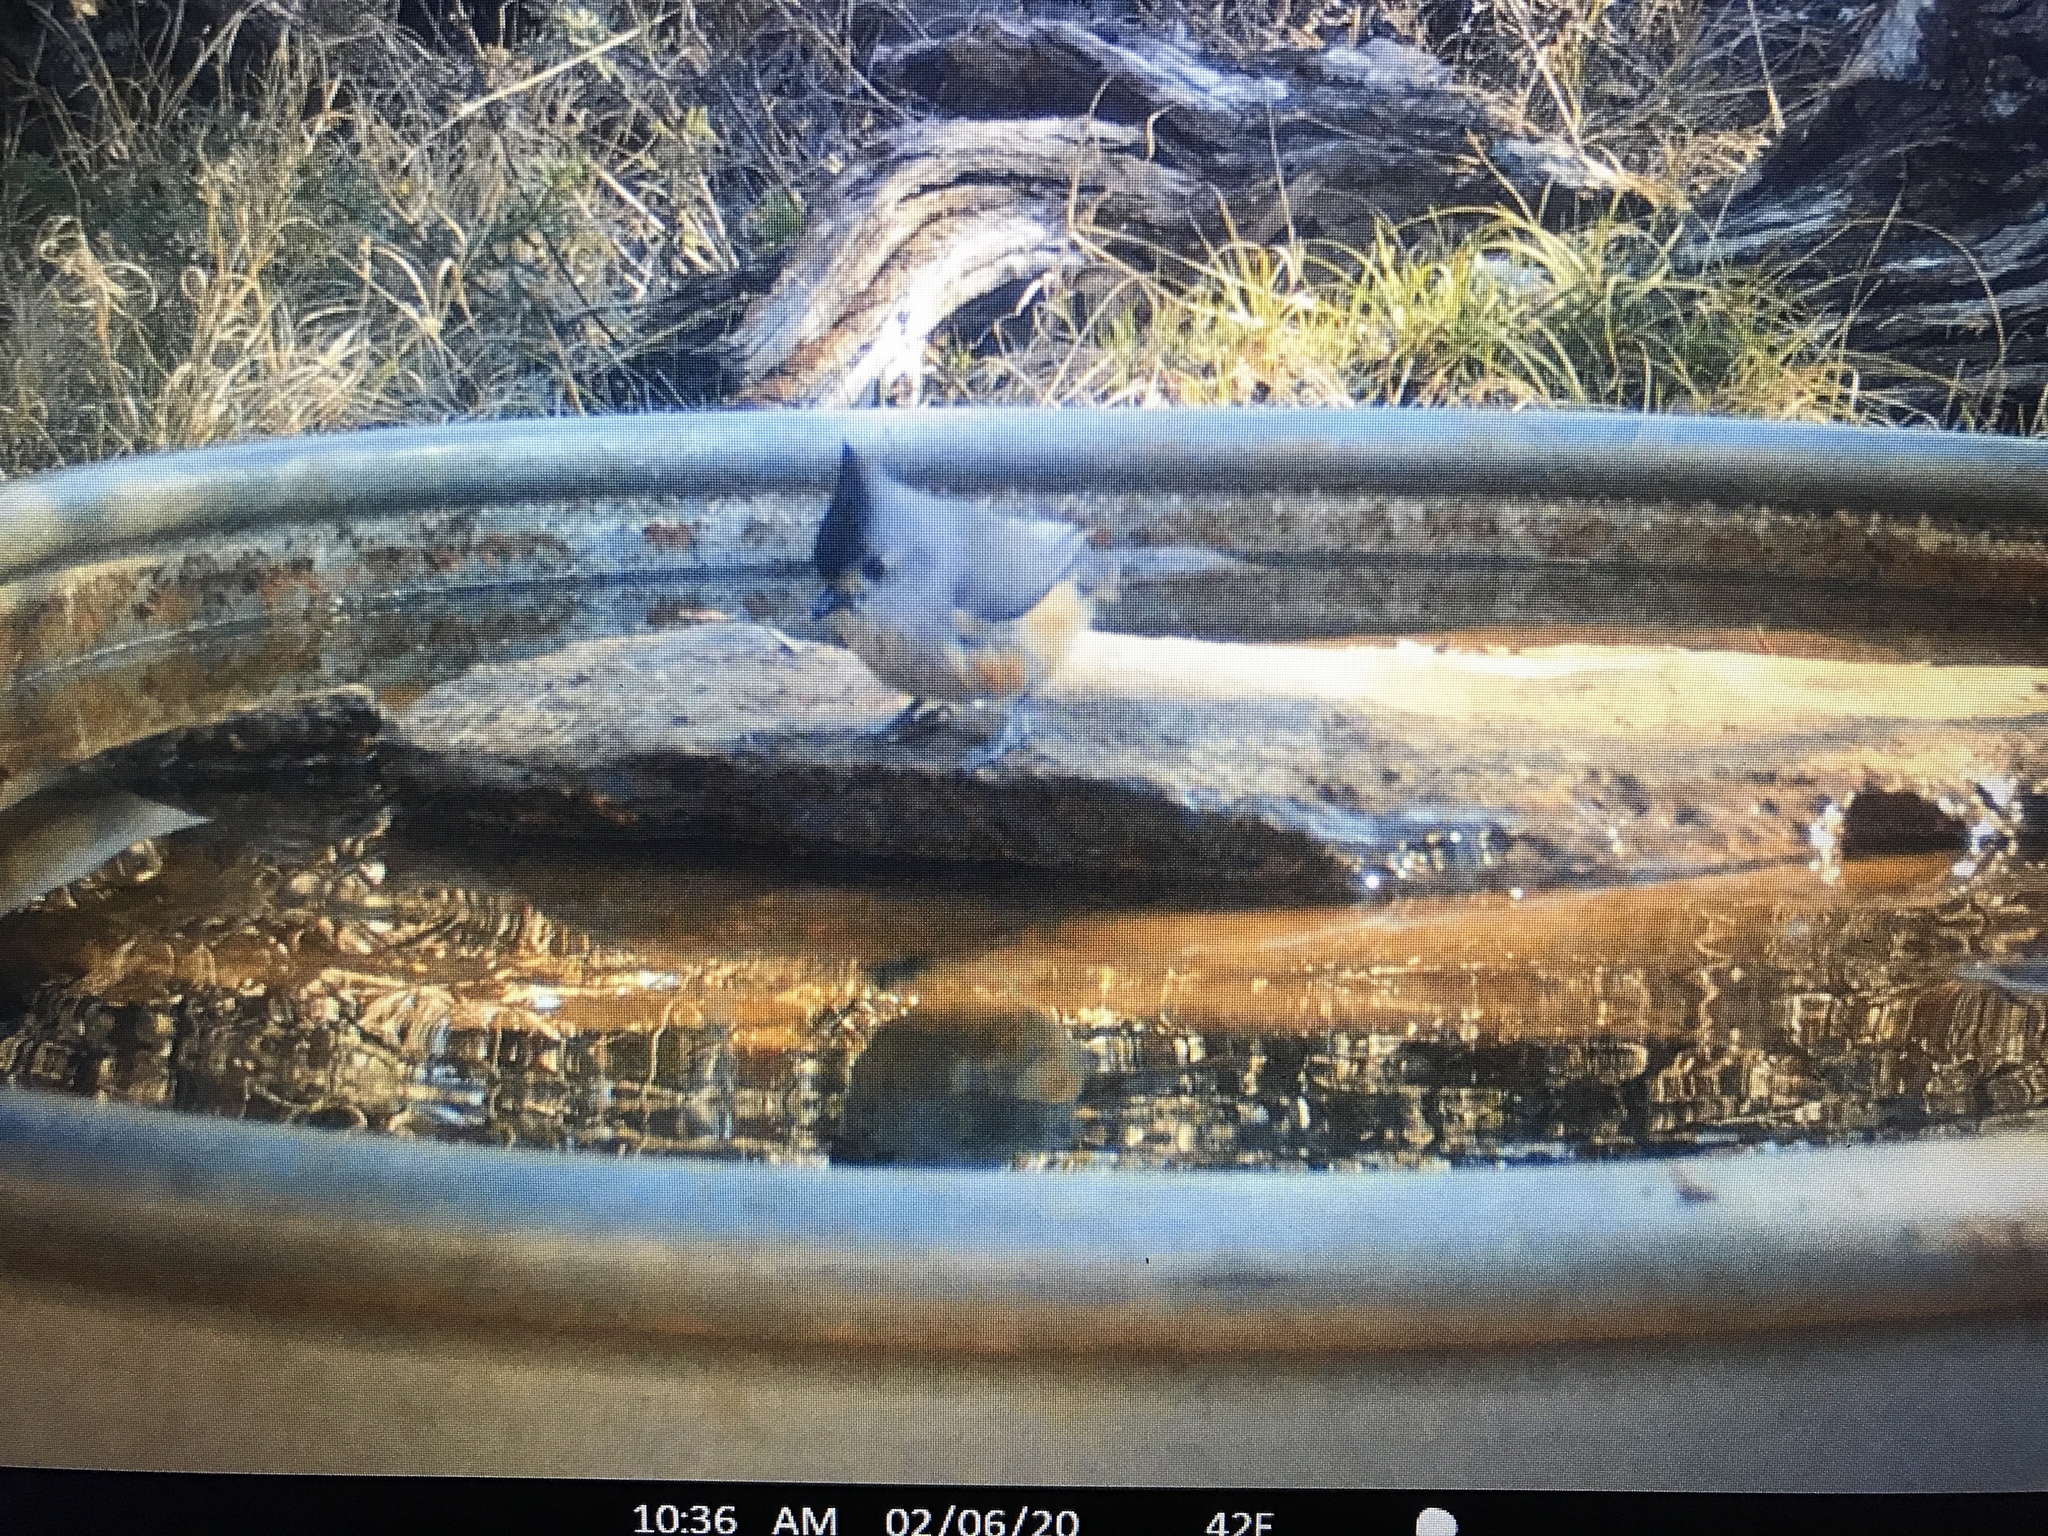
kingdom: Animalia
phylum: Chordata
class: Aves
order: Passeriformes
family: Paridae
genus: Baeolophus
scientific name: Baeolophus atricristatus
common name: Black-crested titmouse
